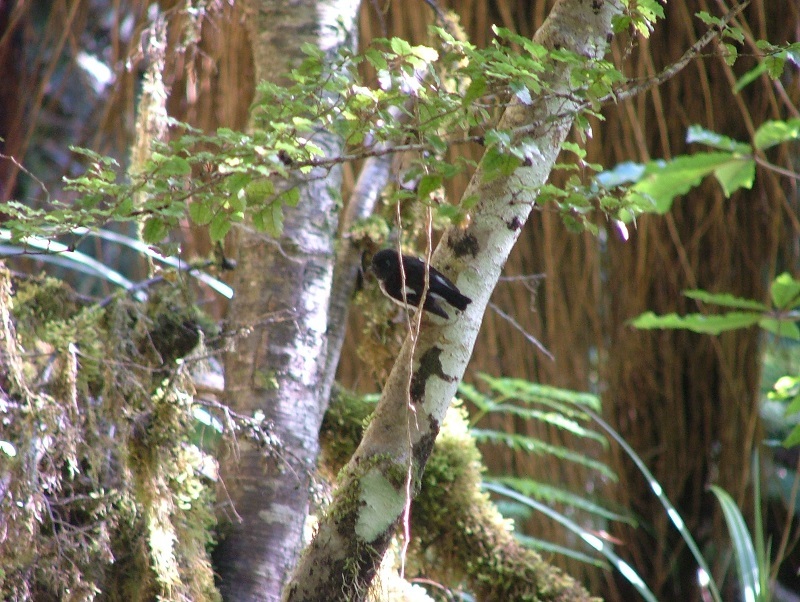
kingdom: Animalia
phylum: Chordata
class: Aves
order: Passeriformes
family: Petroicidae
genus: Petroica
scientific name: Petroica macrocephala
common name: Tomtit
